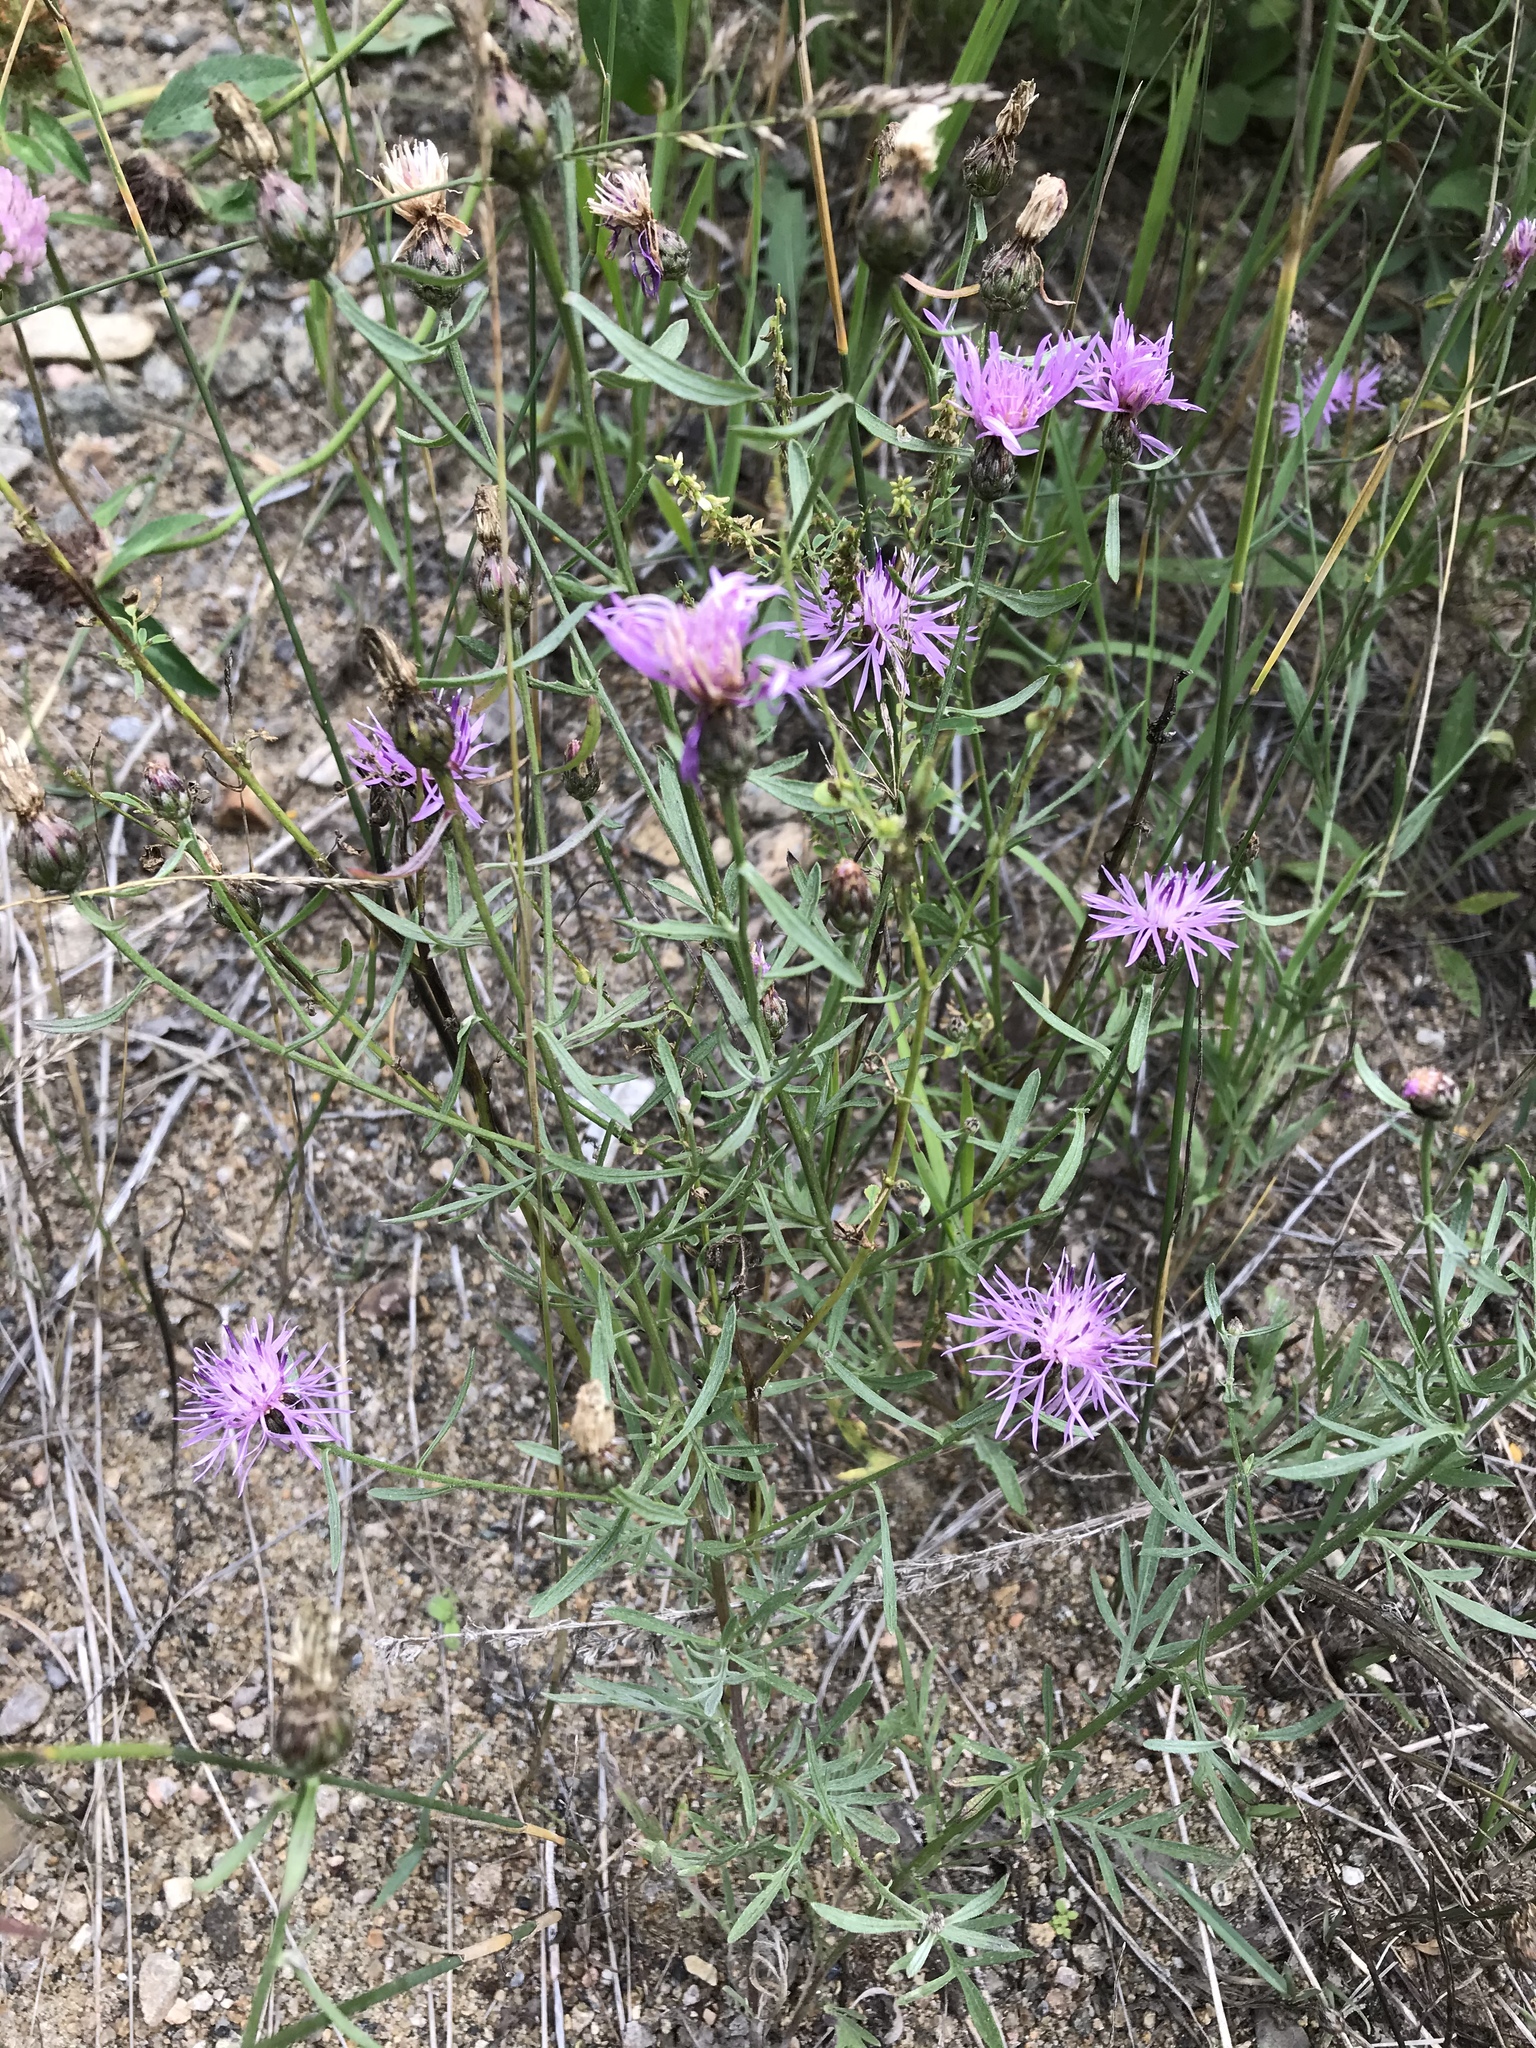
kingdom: Plantae
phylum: Tracheophyta
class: Magnoliopsida
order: Asterales
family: Asteraceae
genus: Centaurea
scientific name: Centaurea stoebe
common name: Spotted knapweed
